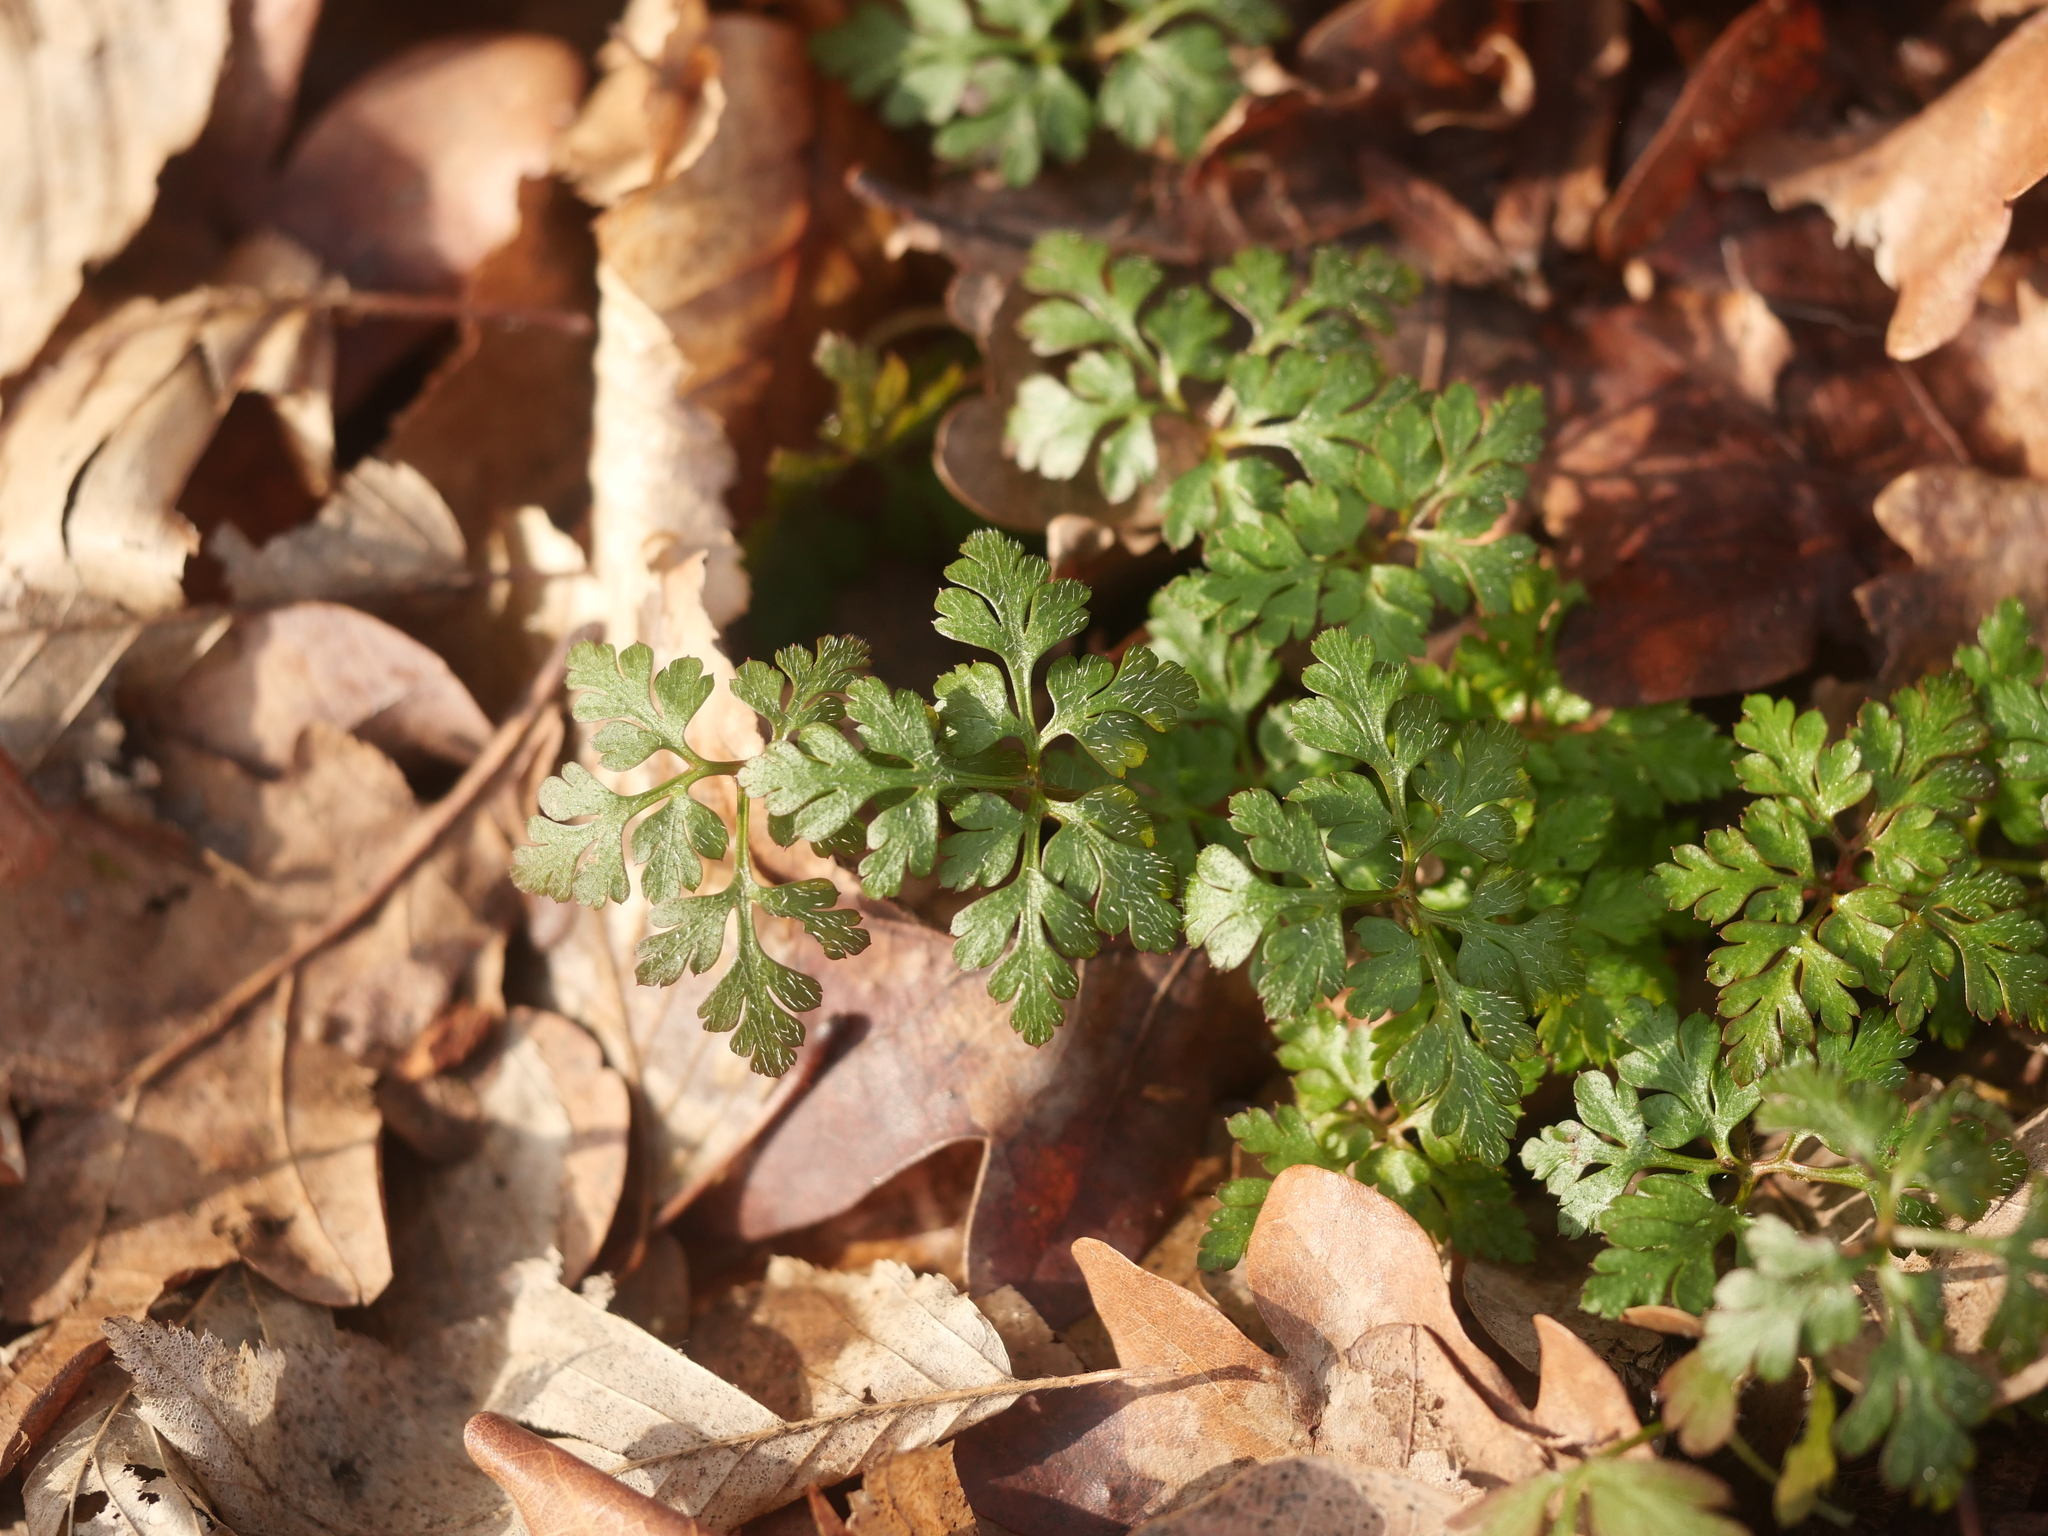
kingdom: Plantae
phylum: Tracheophyta
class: Magnoliopsida
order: Geraniales
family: Geraniaceae
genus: Geranium
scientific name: Geranium robertianum
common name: Herb-robert
